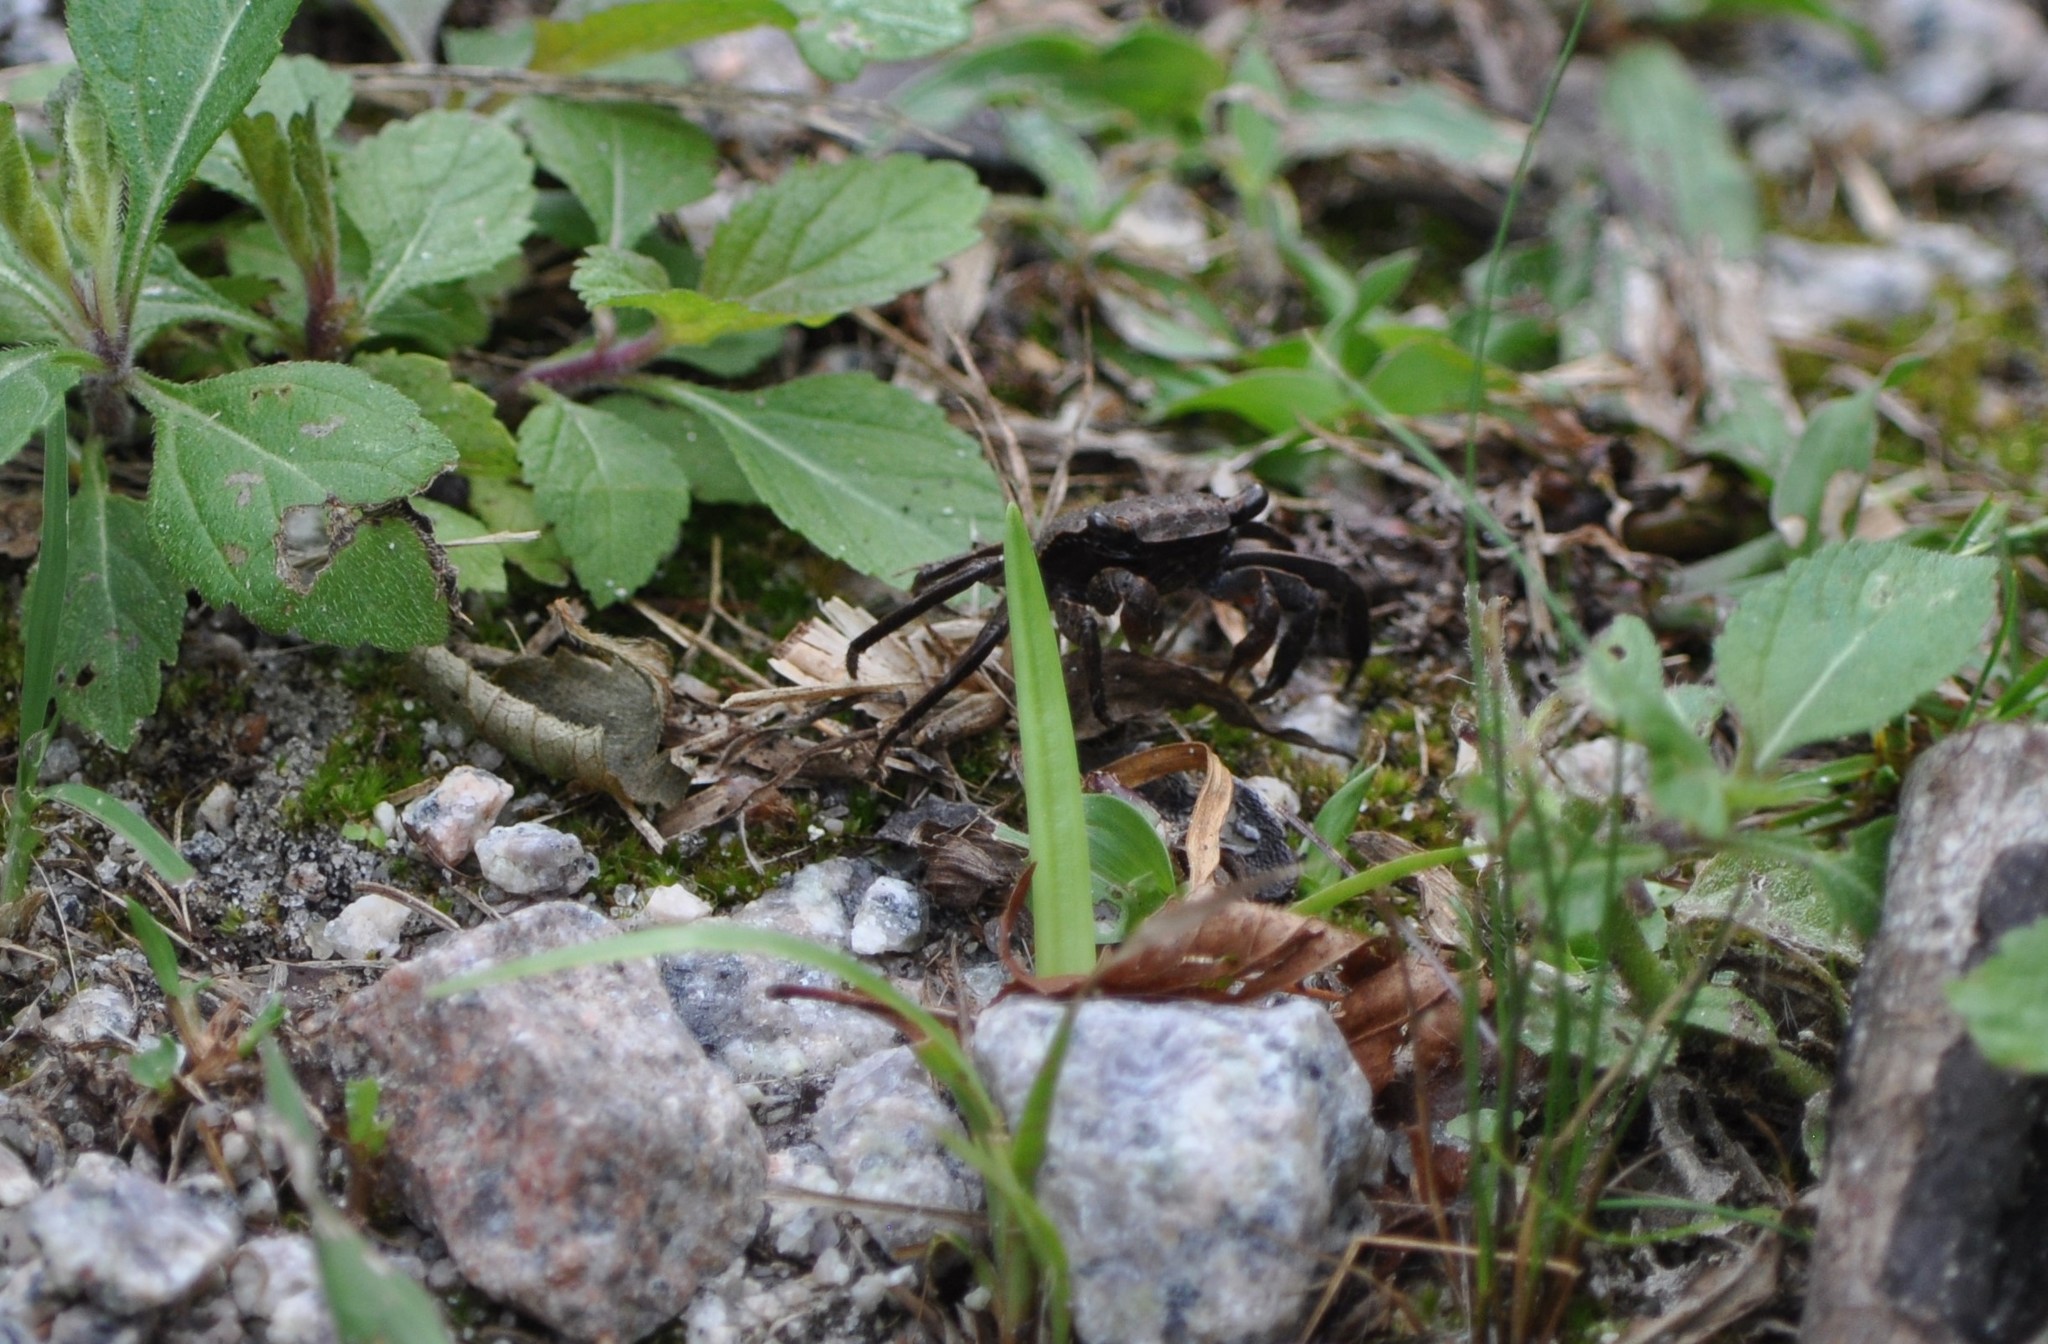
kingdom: Animalia
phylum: Arthropoda
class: Malacostraca
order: Decapoda
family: Sesarmidae
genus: Armases
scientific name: Armases cinereum
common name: Squareback marsh crab
